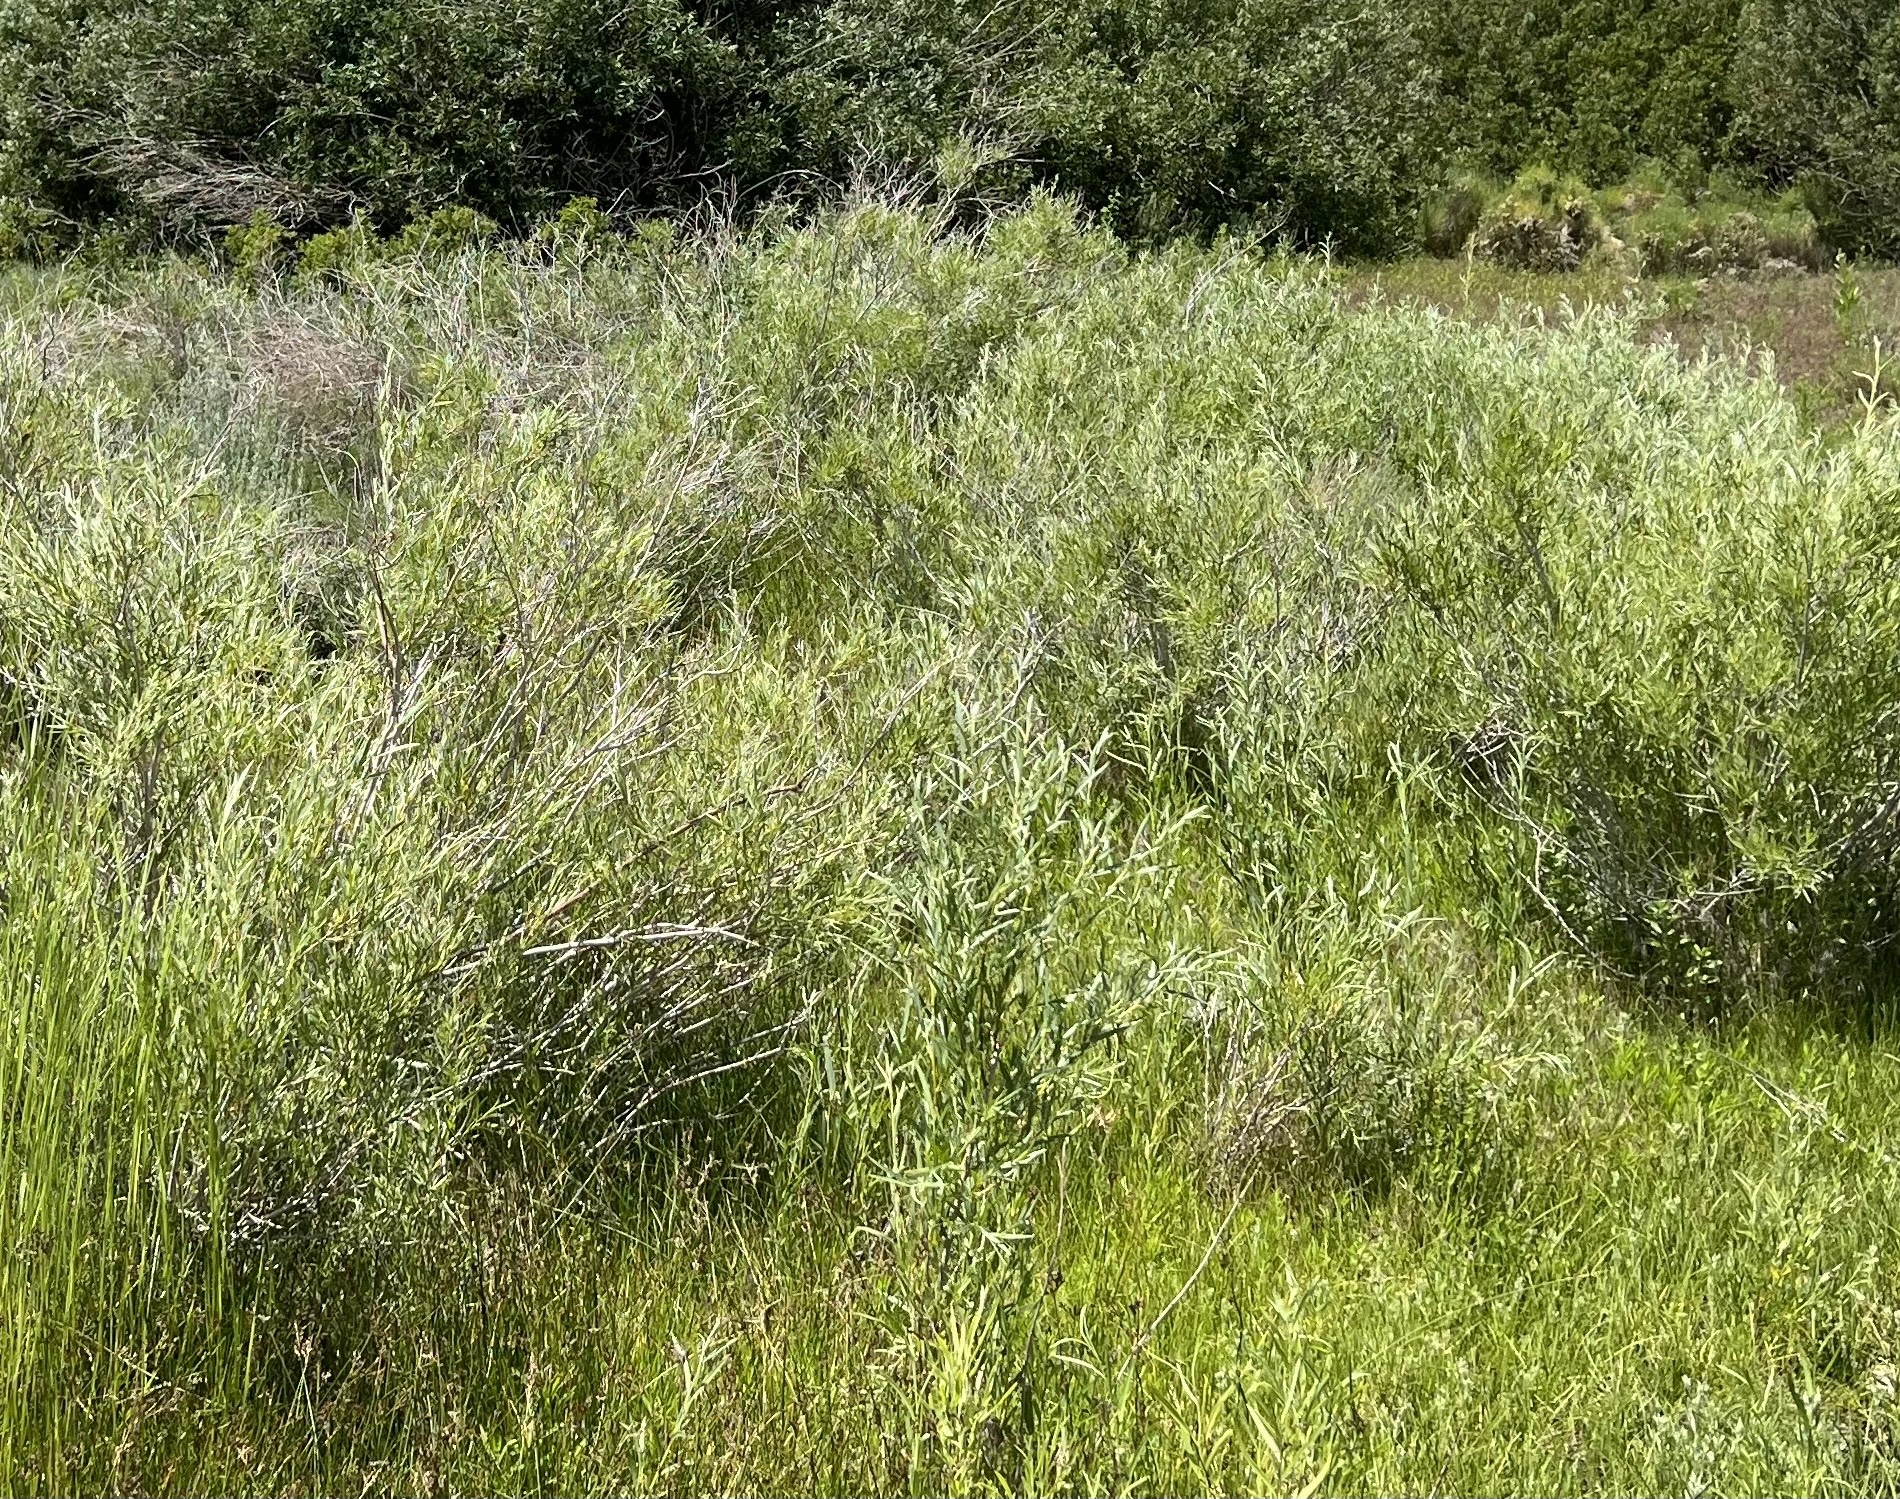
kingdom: Plantae
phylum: Tracheophyta
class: Magnoliopsida
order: Malpighiales
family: Salicaceae
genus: Salix
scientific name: Salix exigua
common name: Coyote willow
